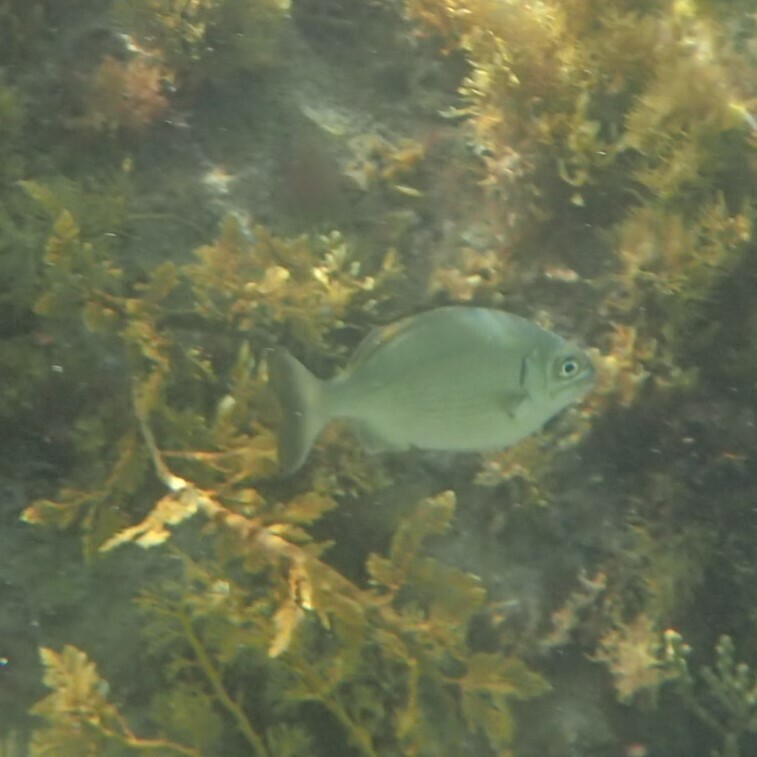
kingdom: Animalia
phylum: Chordata
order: Perciformes
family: Kyphosidae
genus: Kyphosus
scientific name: Kyphosus sydneyanus
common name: Silver drummer
